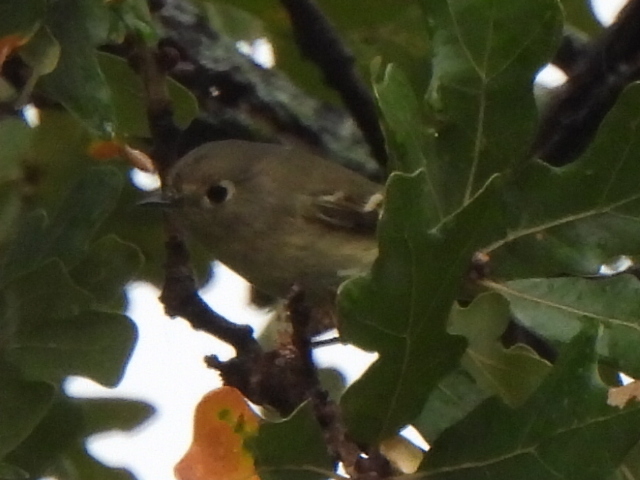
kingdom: Animalia
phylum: Chordata
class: Aves
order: Passeriformes
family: Regulidae
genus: Regulus
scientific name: Regulus calendula
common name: Ruby-crowned kinglet
